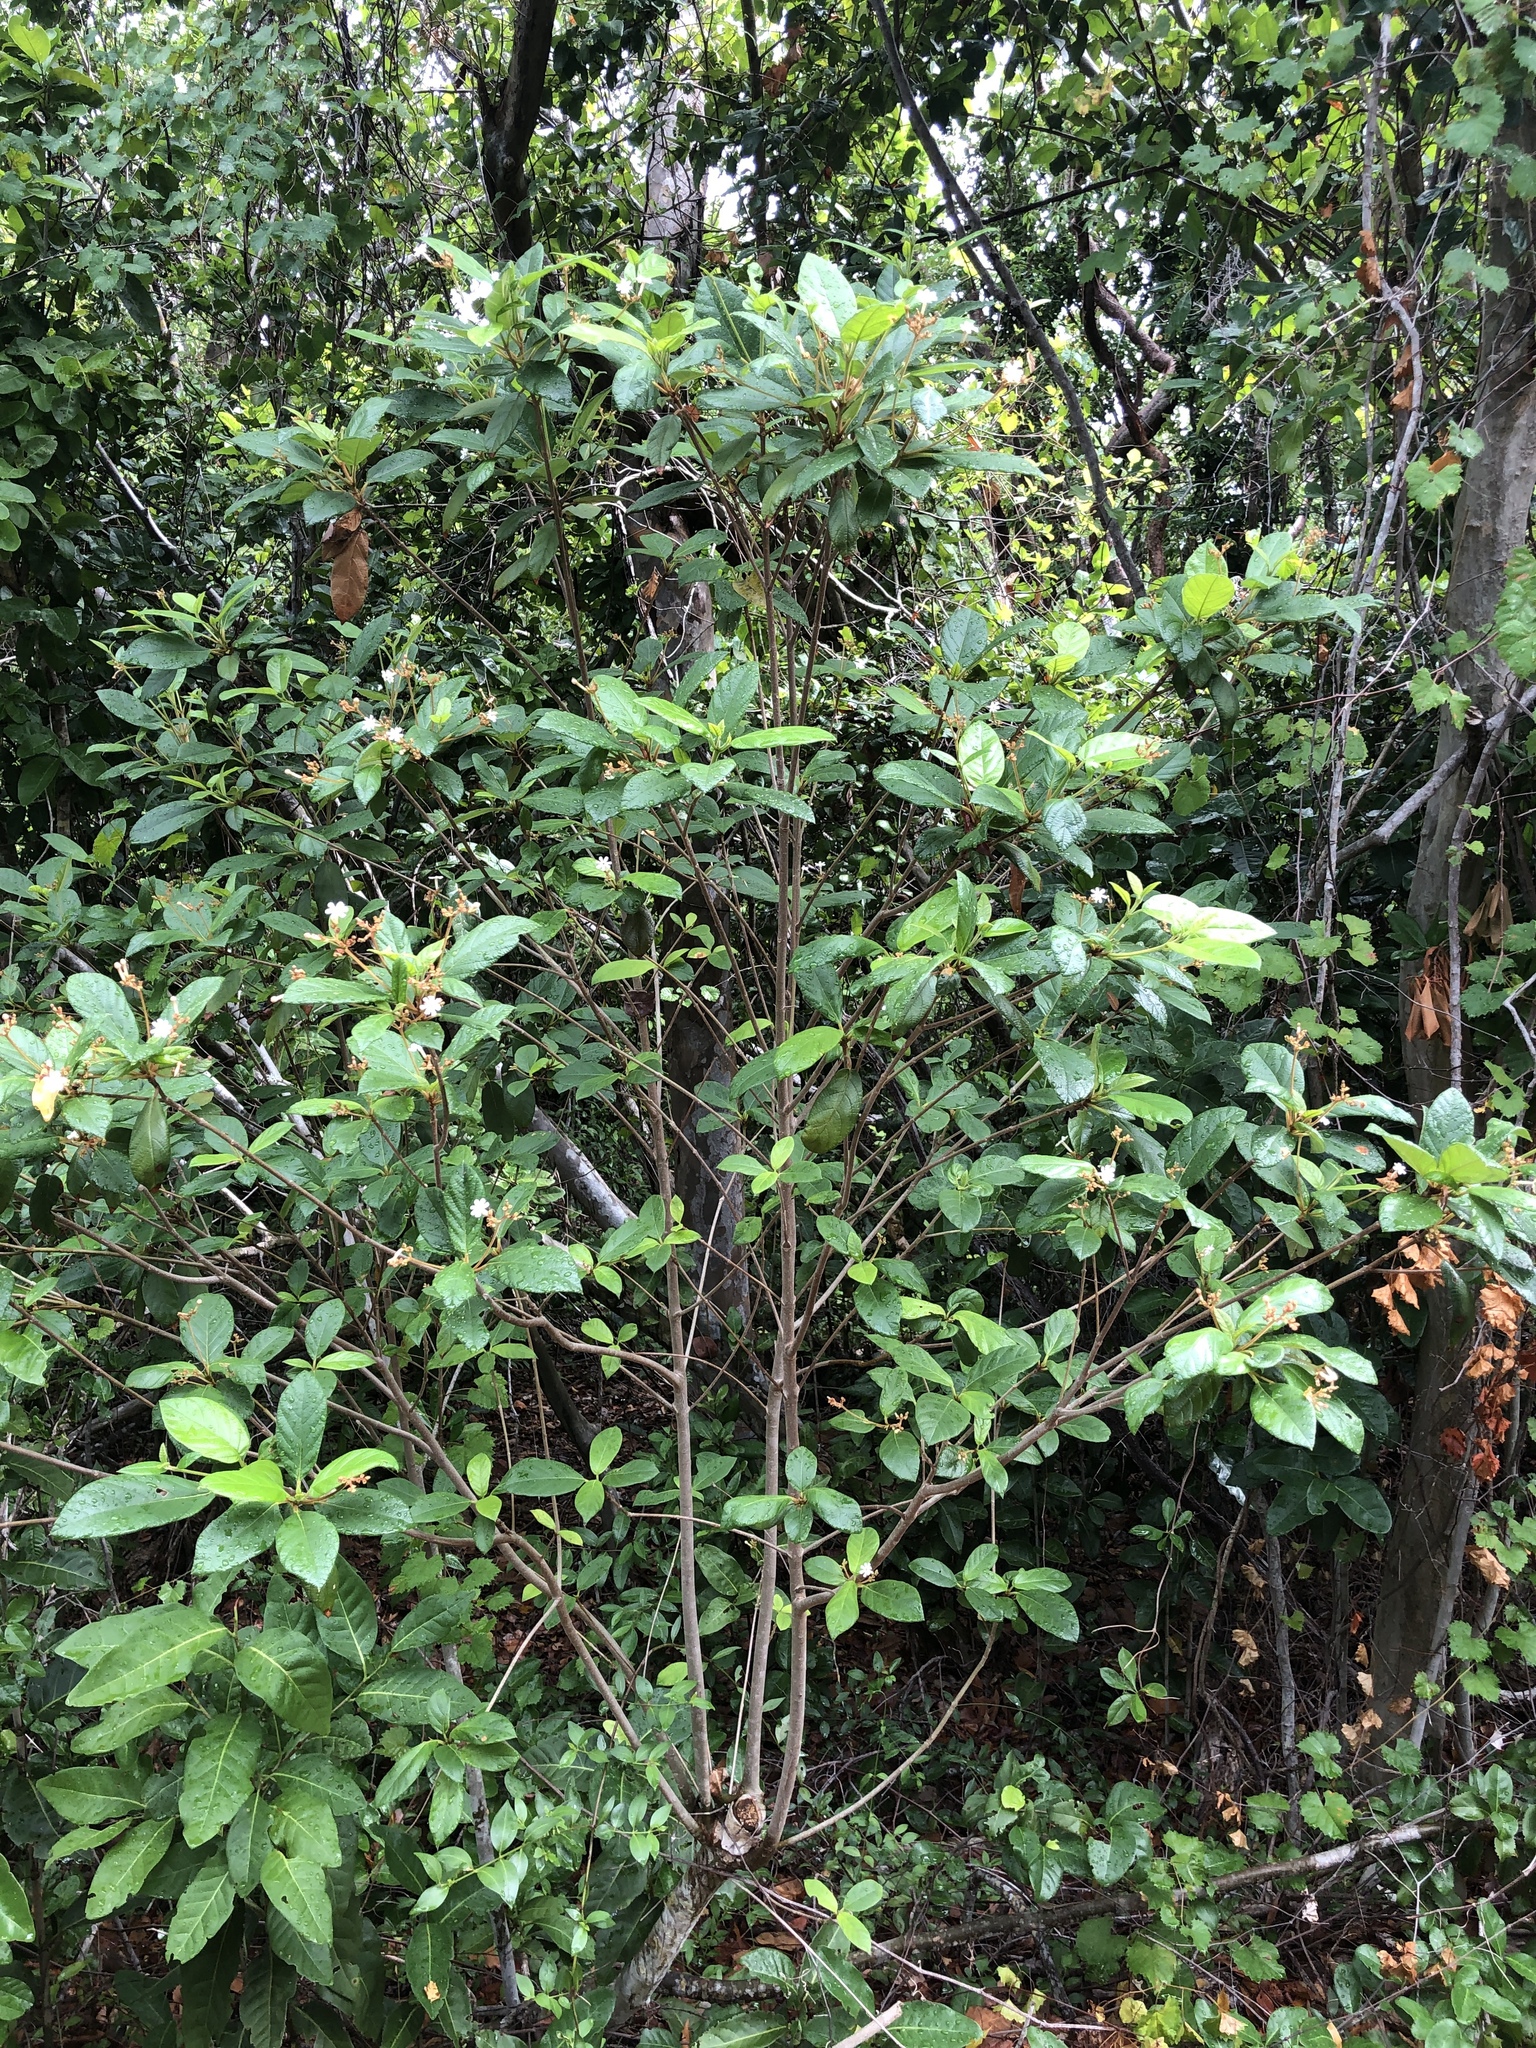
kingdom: Plantae
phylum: Tracheophyta
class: Magnoliopsida
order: Gentianales
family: Rubiaceae
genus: Guettarda
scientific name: Guettarda scabra
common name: Pigeon bay
